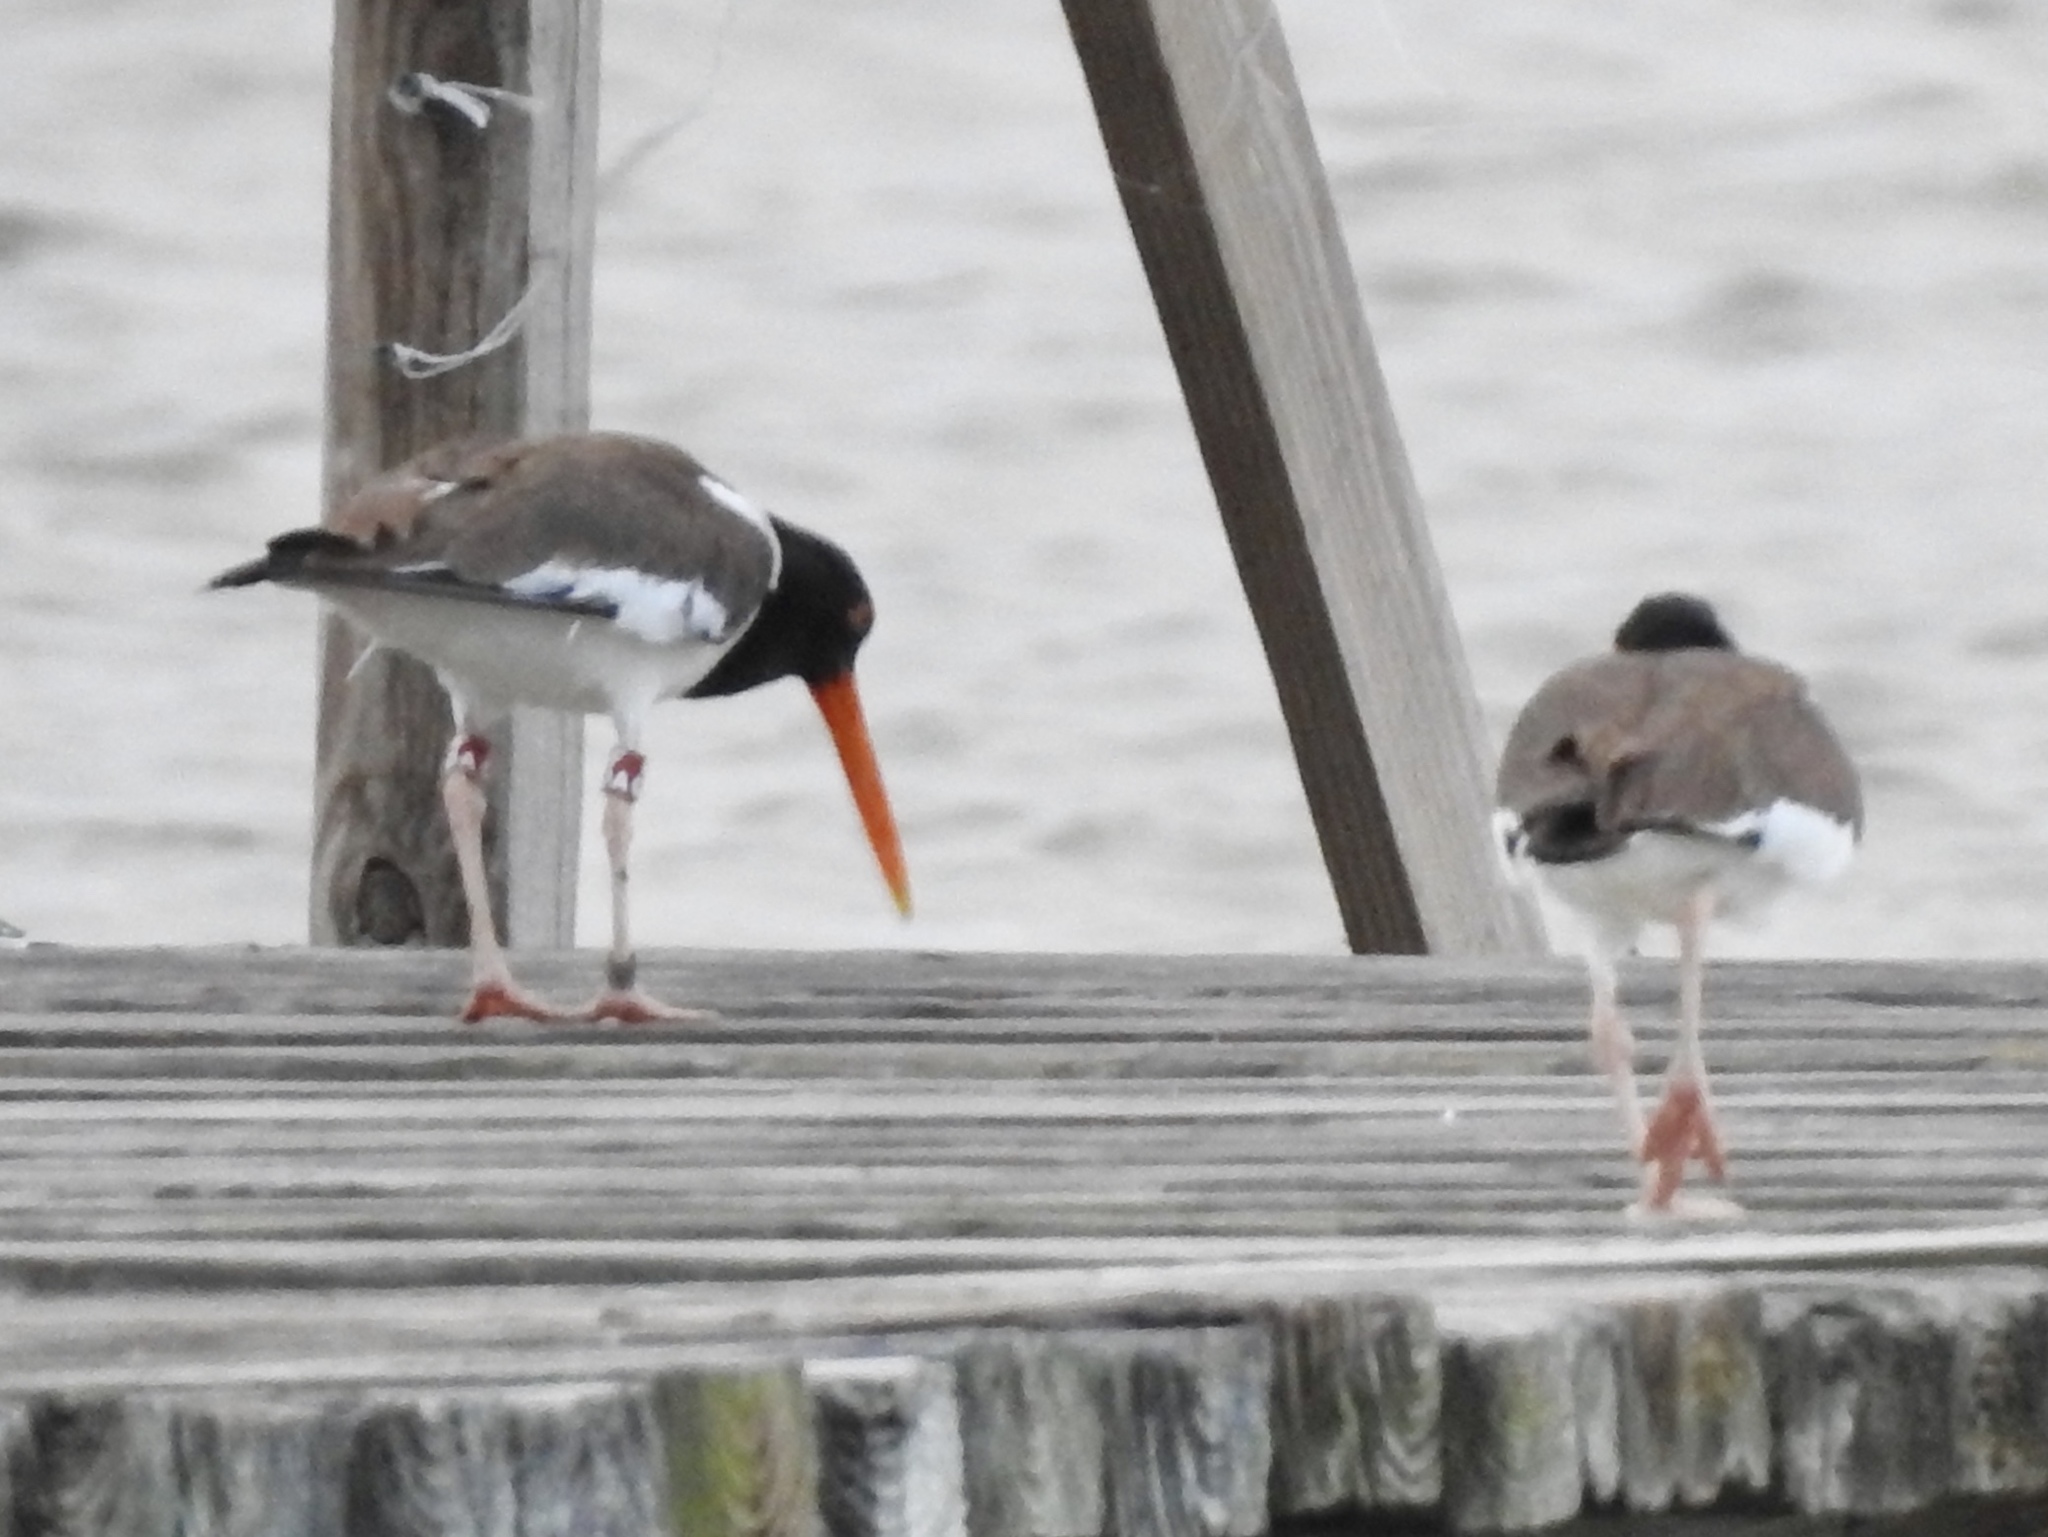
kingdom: Animalia
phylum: Chordata
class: Aves
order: Charadriiformes
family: Haematopodidae
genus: Haematopus
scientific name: Haematopus palliatus
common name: American oystercatcher
